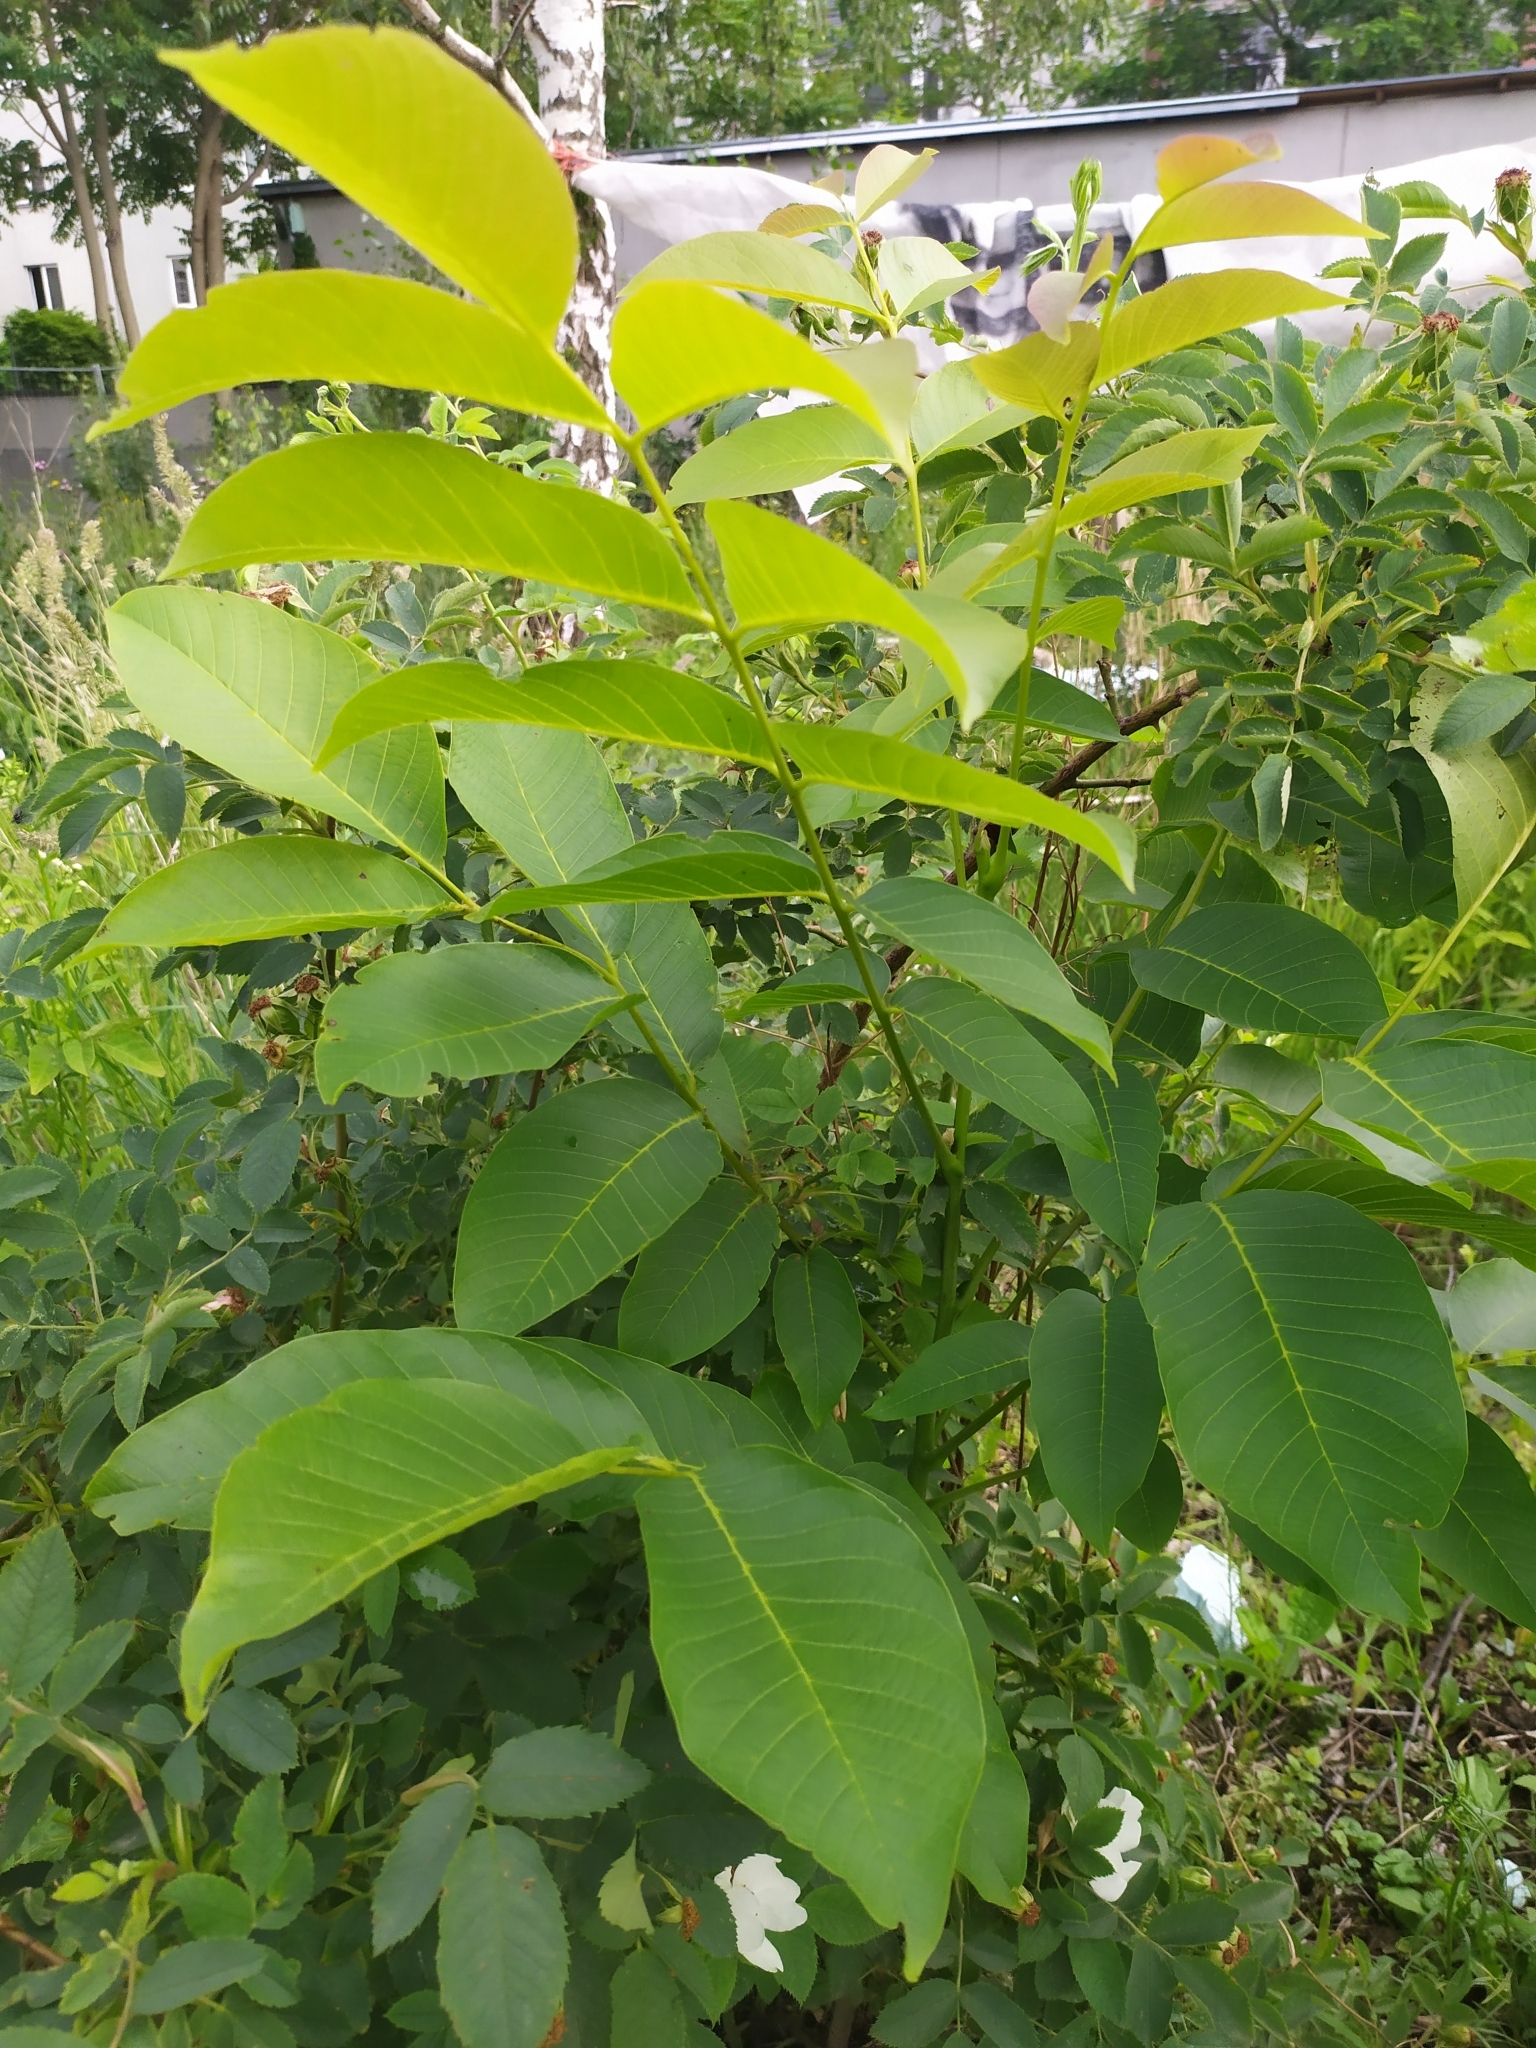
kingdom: Plantae
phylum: Tracheophyta
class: Magnoliopsida
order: Fagales
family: Juglandaceae
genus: Juglans
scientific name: Juglans regia
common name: Walnut
